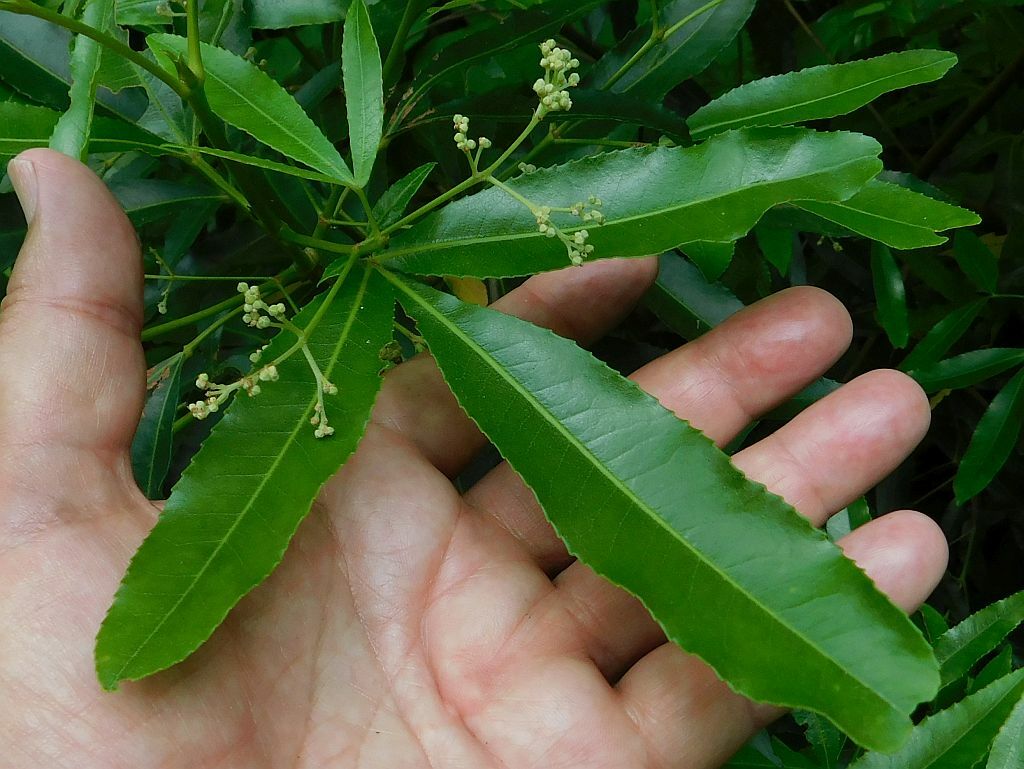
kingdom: Plantae
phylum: Tracheophyta
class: Magnoliopsida
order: Oxalidales
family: Cunoniaceae
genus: Platylophus
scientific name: Platylophus trifoliatus
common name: White alder
